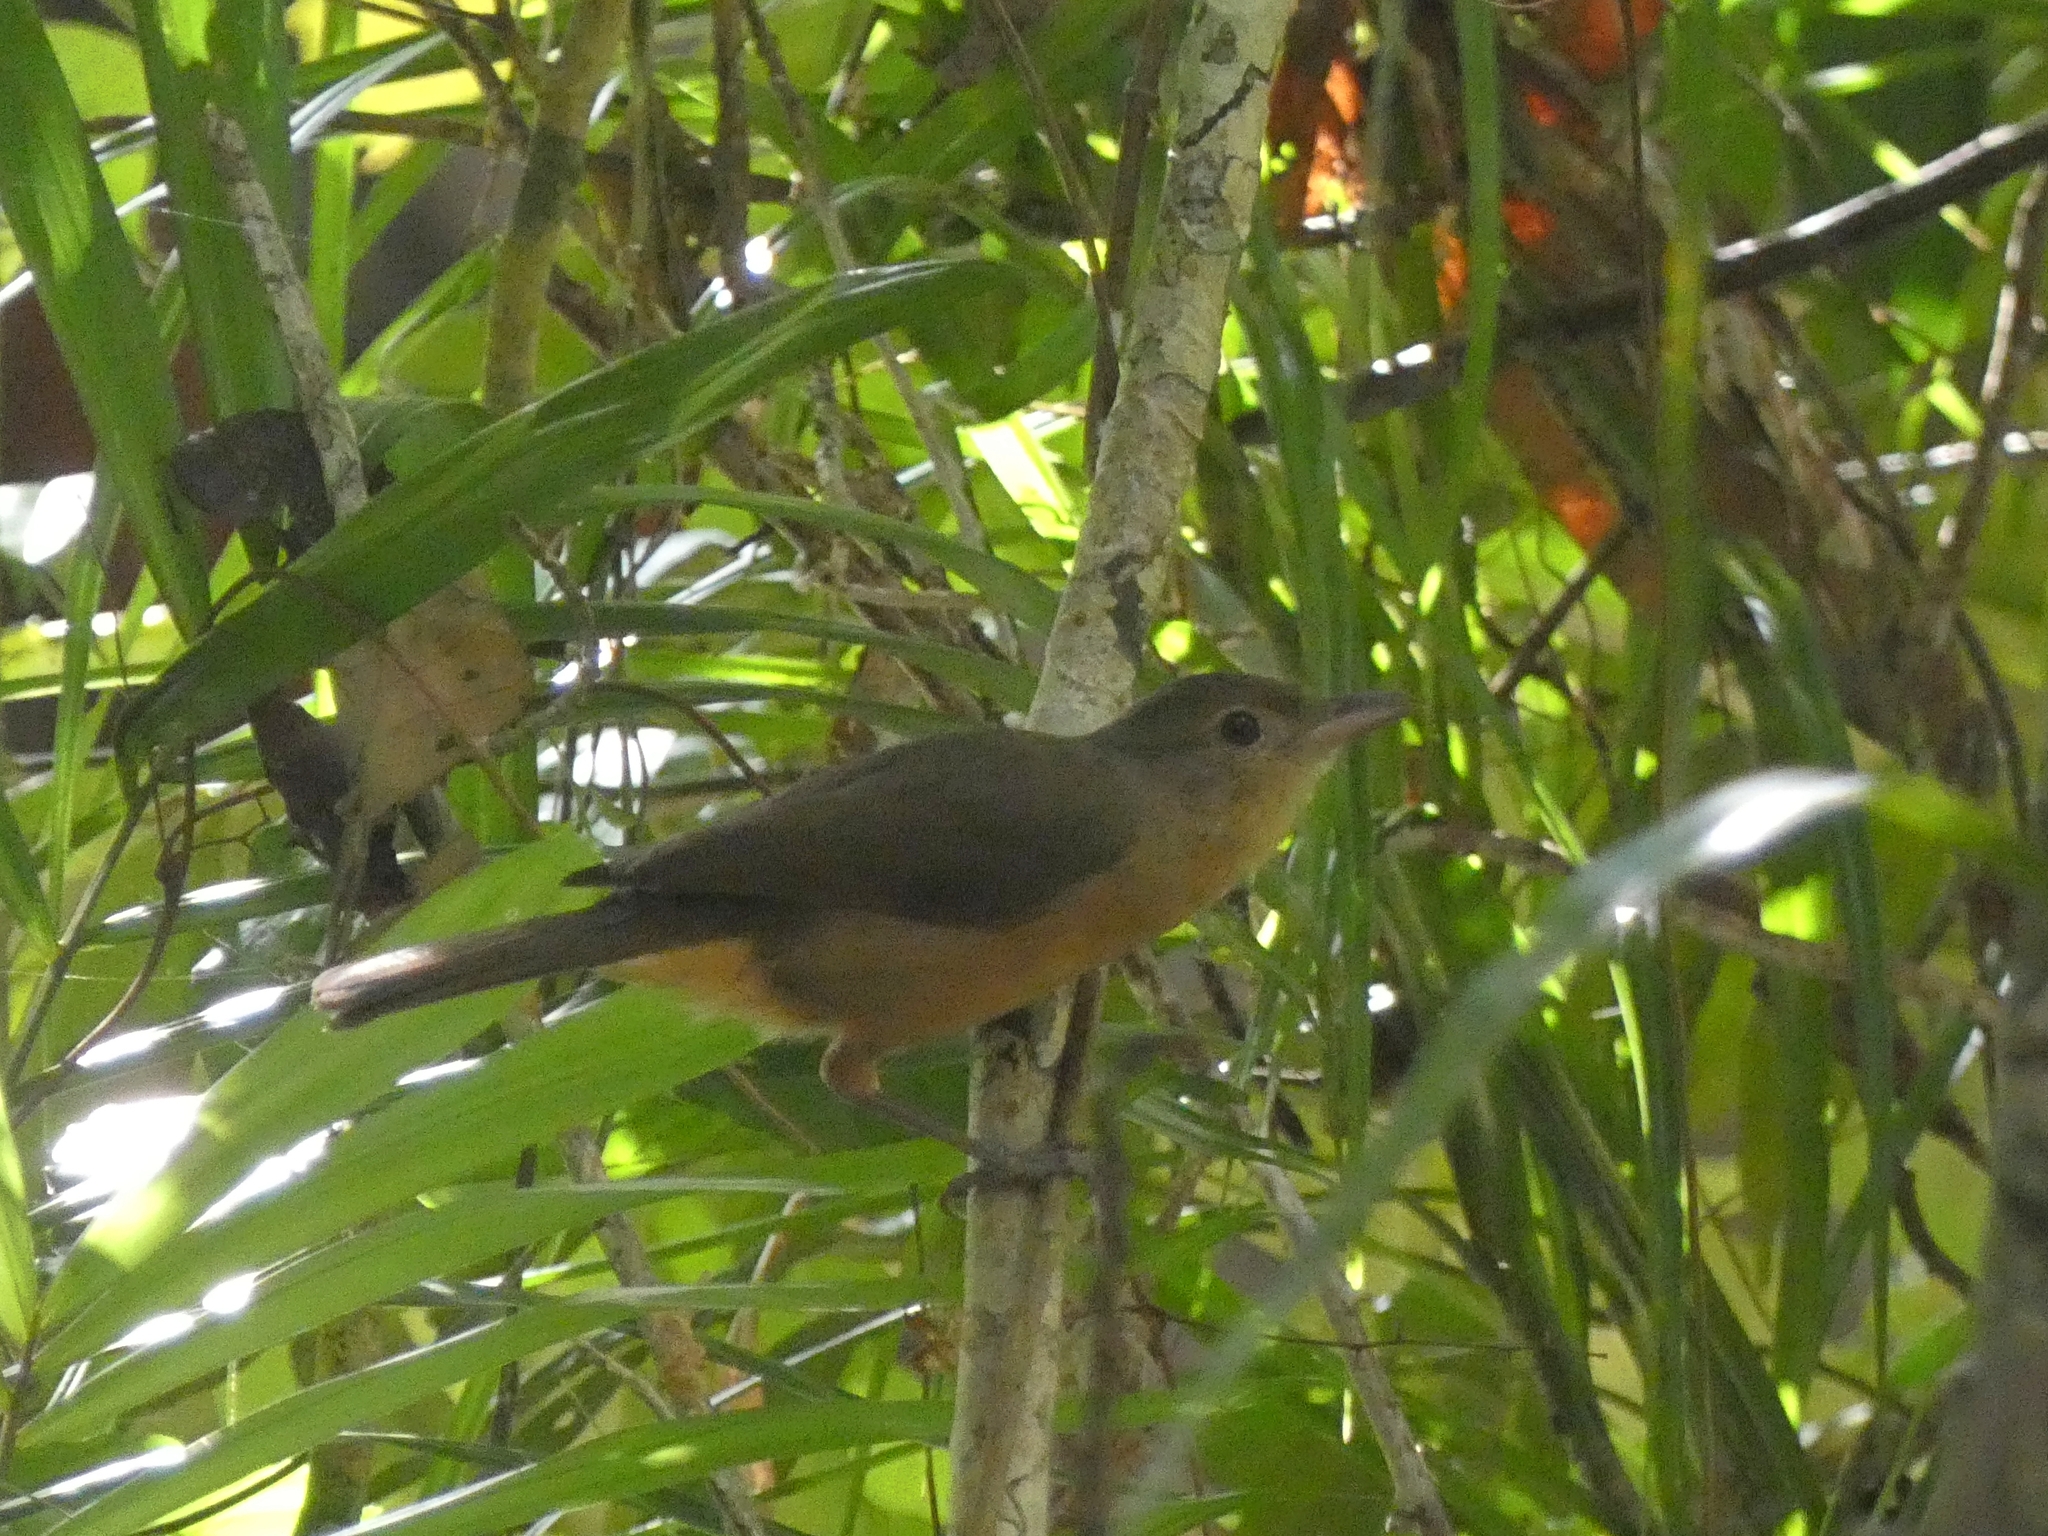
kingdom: Animalia
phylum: Chordata
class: Aves
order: Passeriformes
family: Pachycephalidae
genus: Colluricincla
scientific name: Colluricincla rufogaster
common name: Rufous shrikethrush
